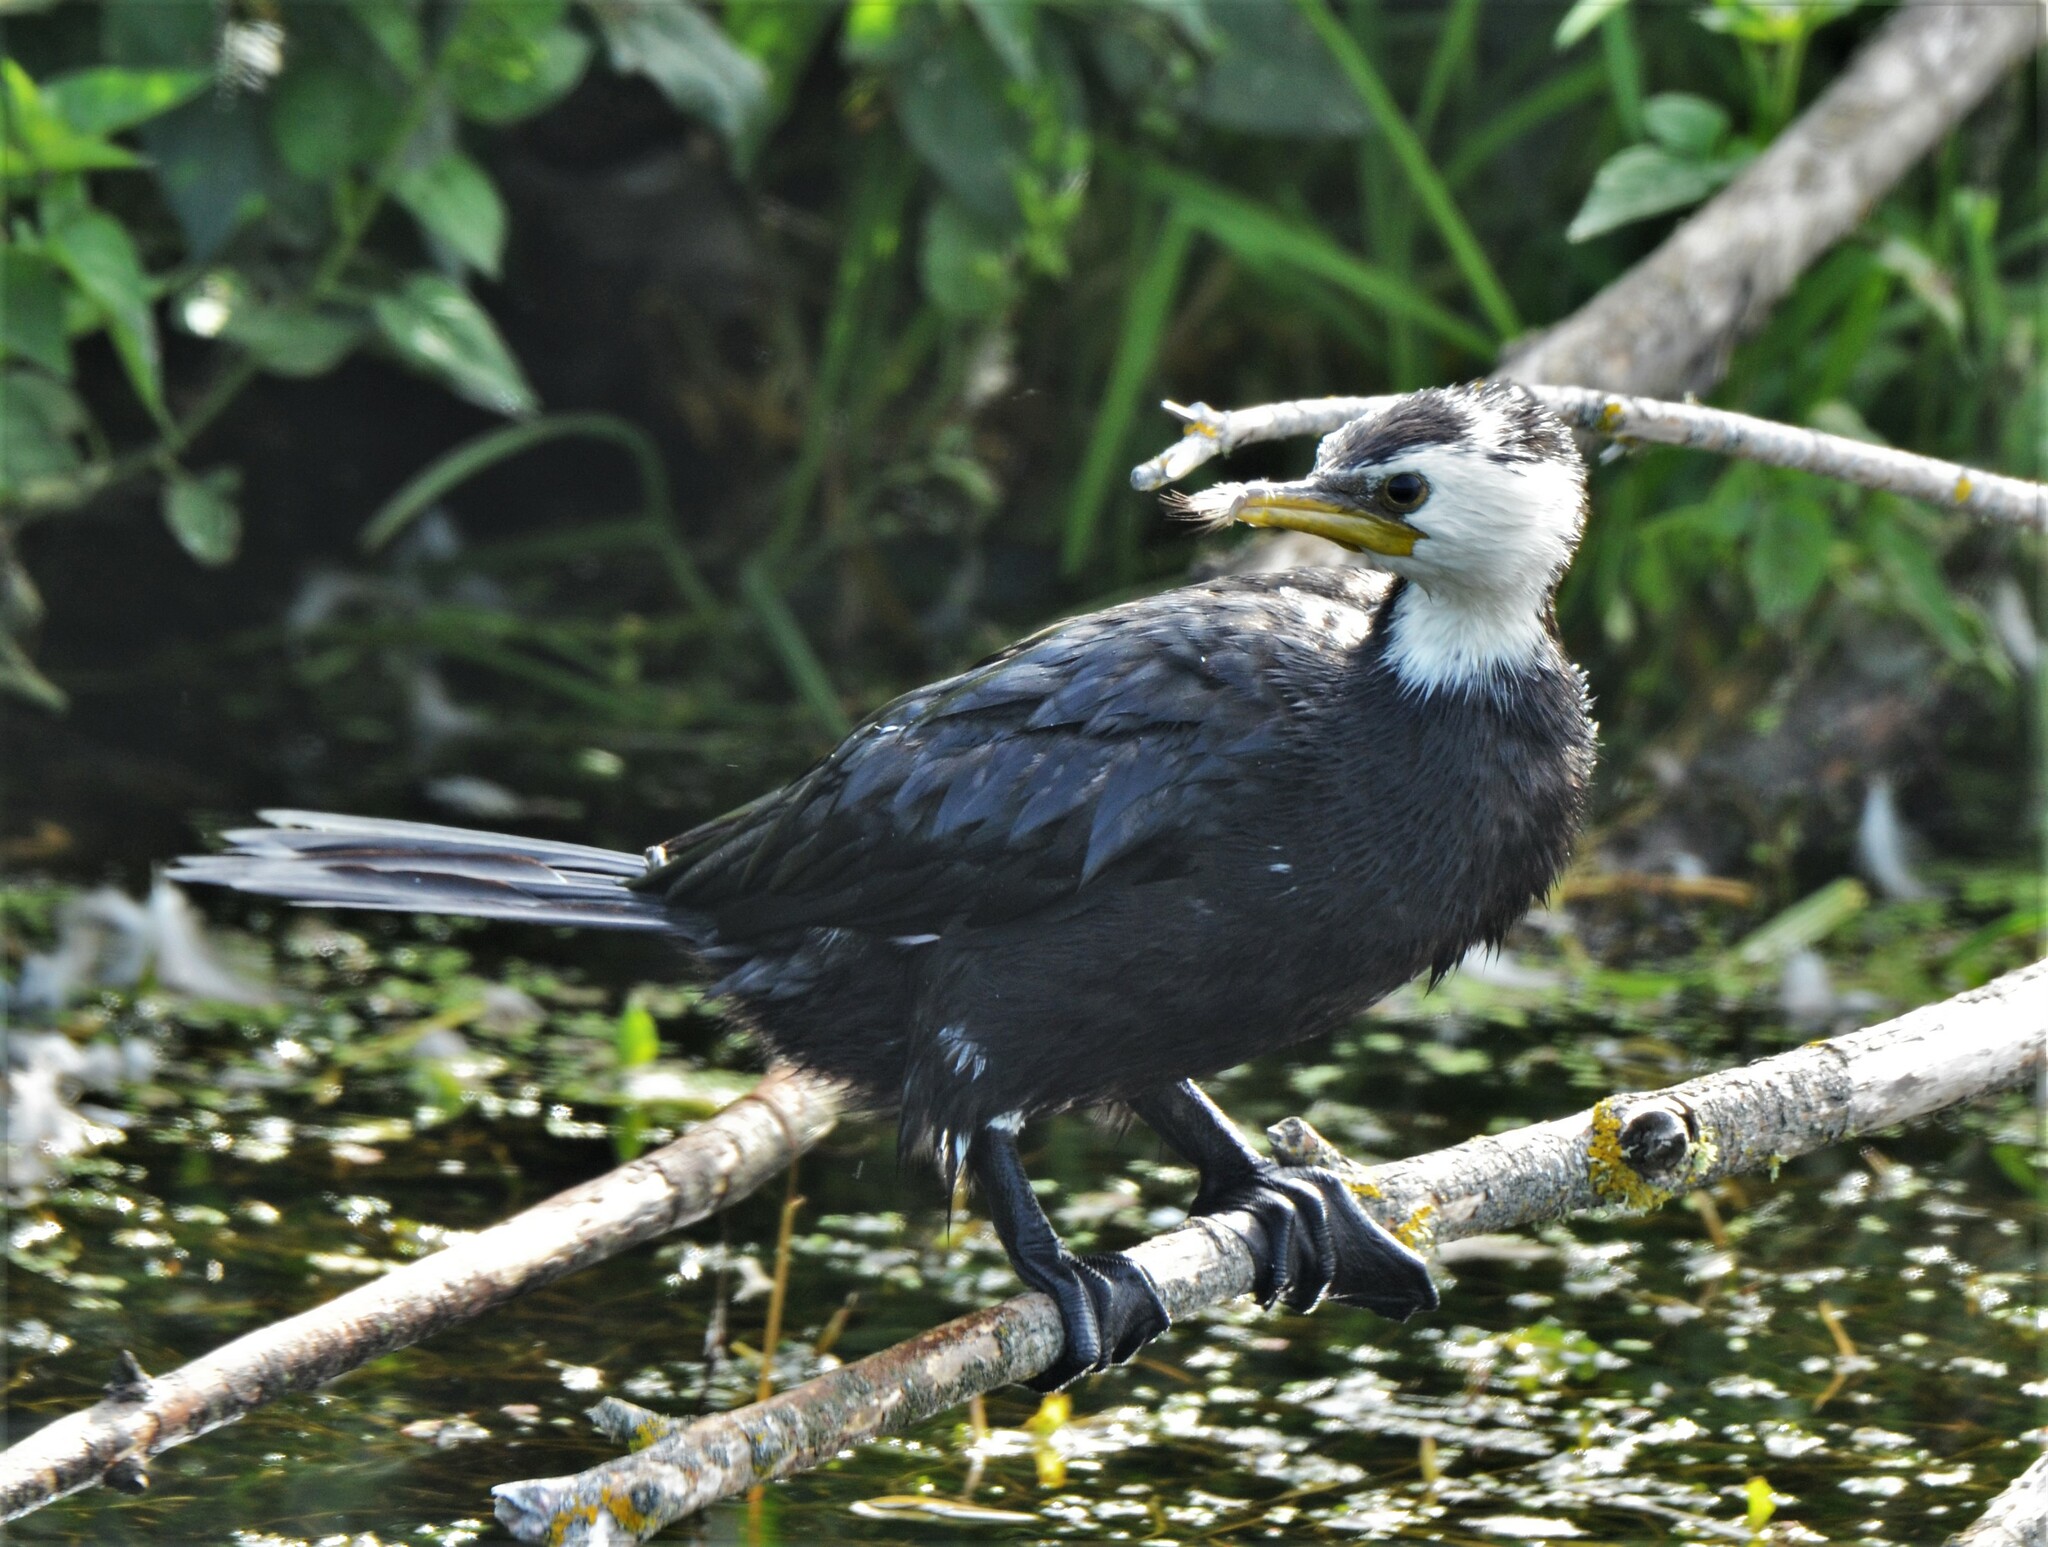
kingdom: Animalia
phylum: Chordata
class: Aves
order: Suliformes
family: Phalacrocoracidae
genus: Microcarbo
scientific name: Microcarbo melanoleucos
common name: Little pied cormorant
